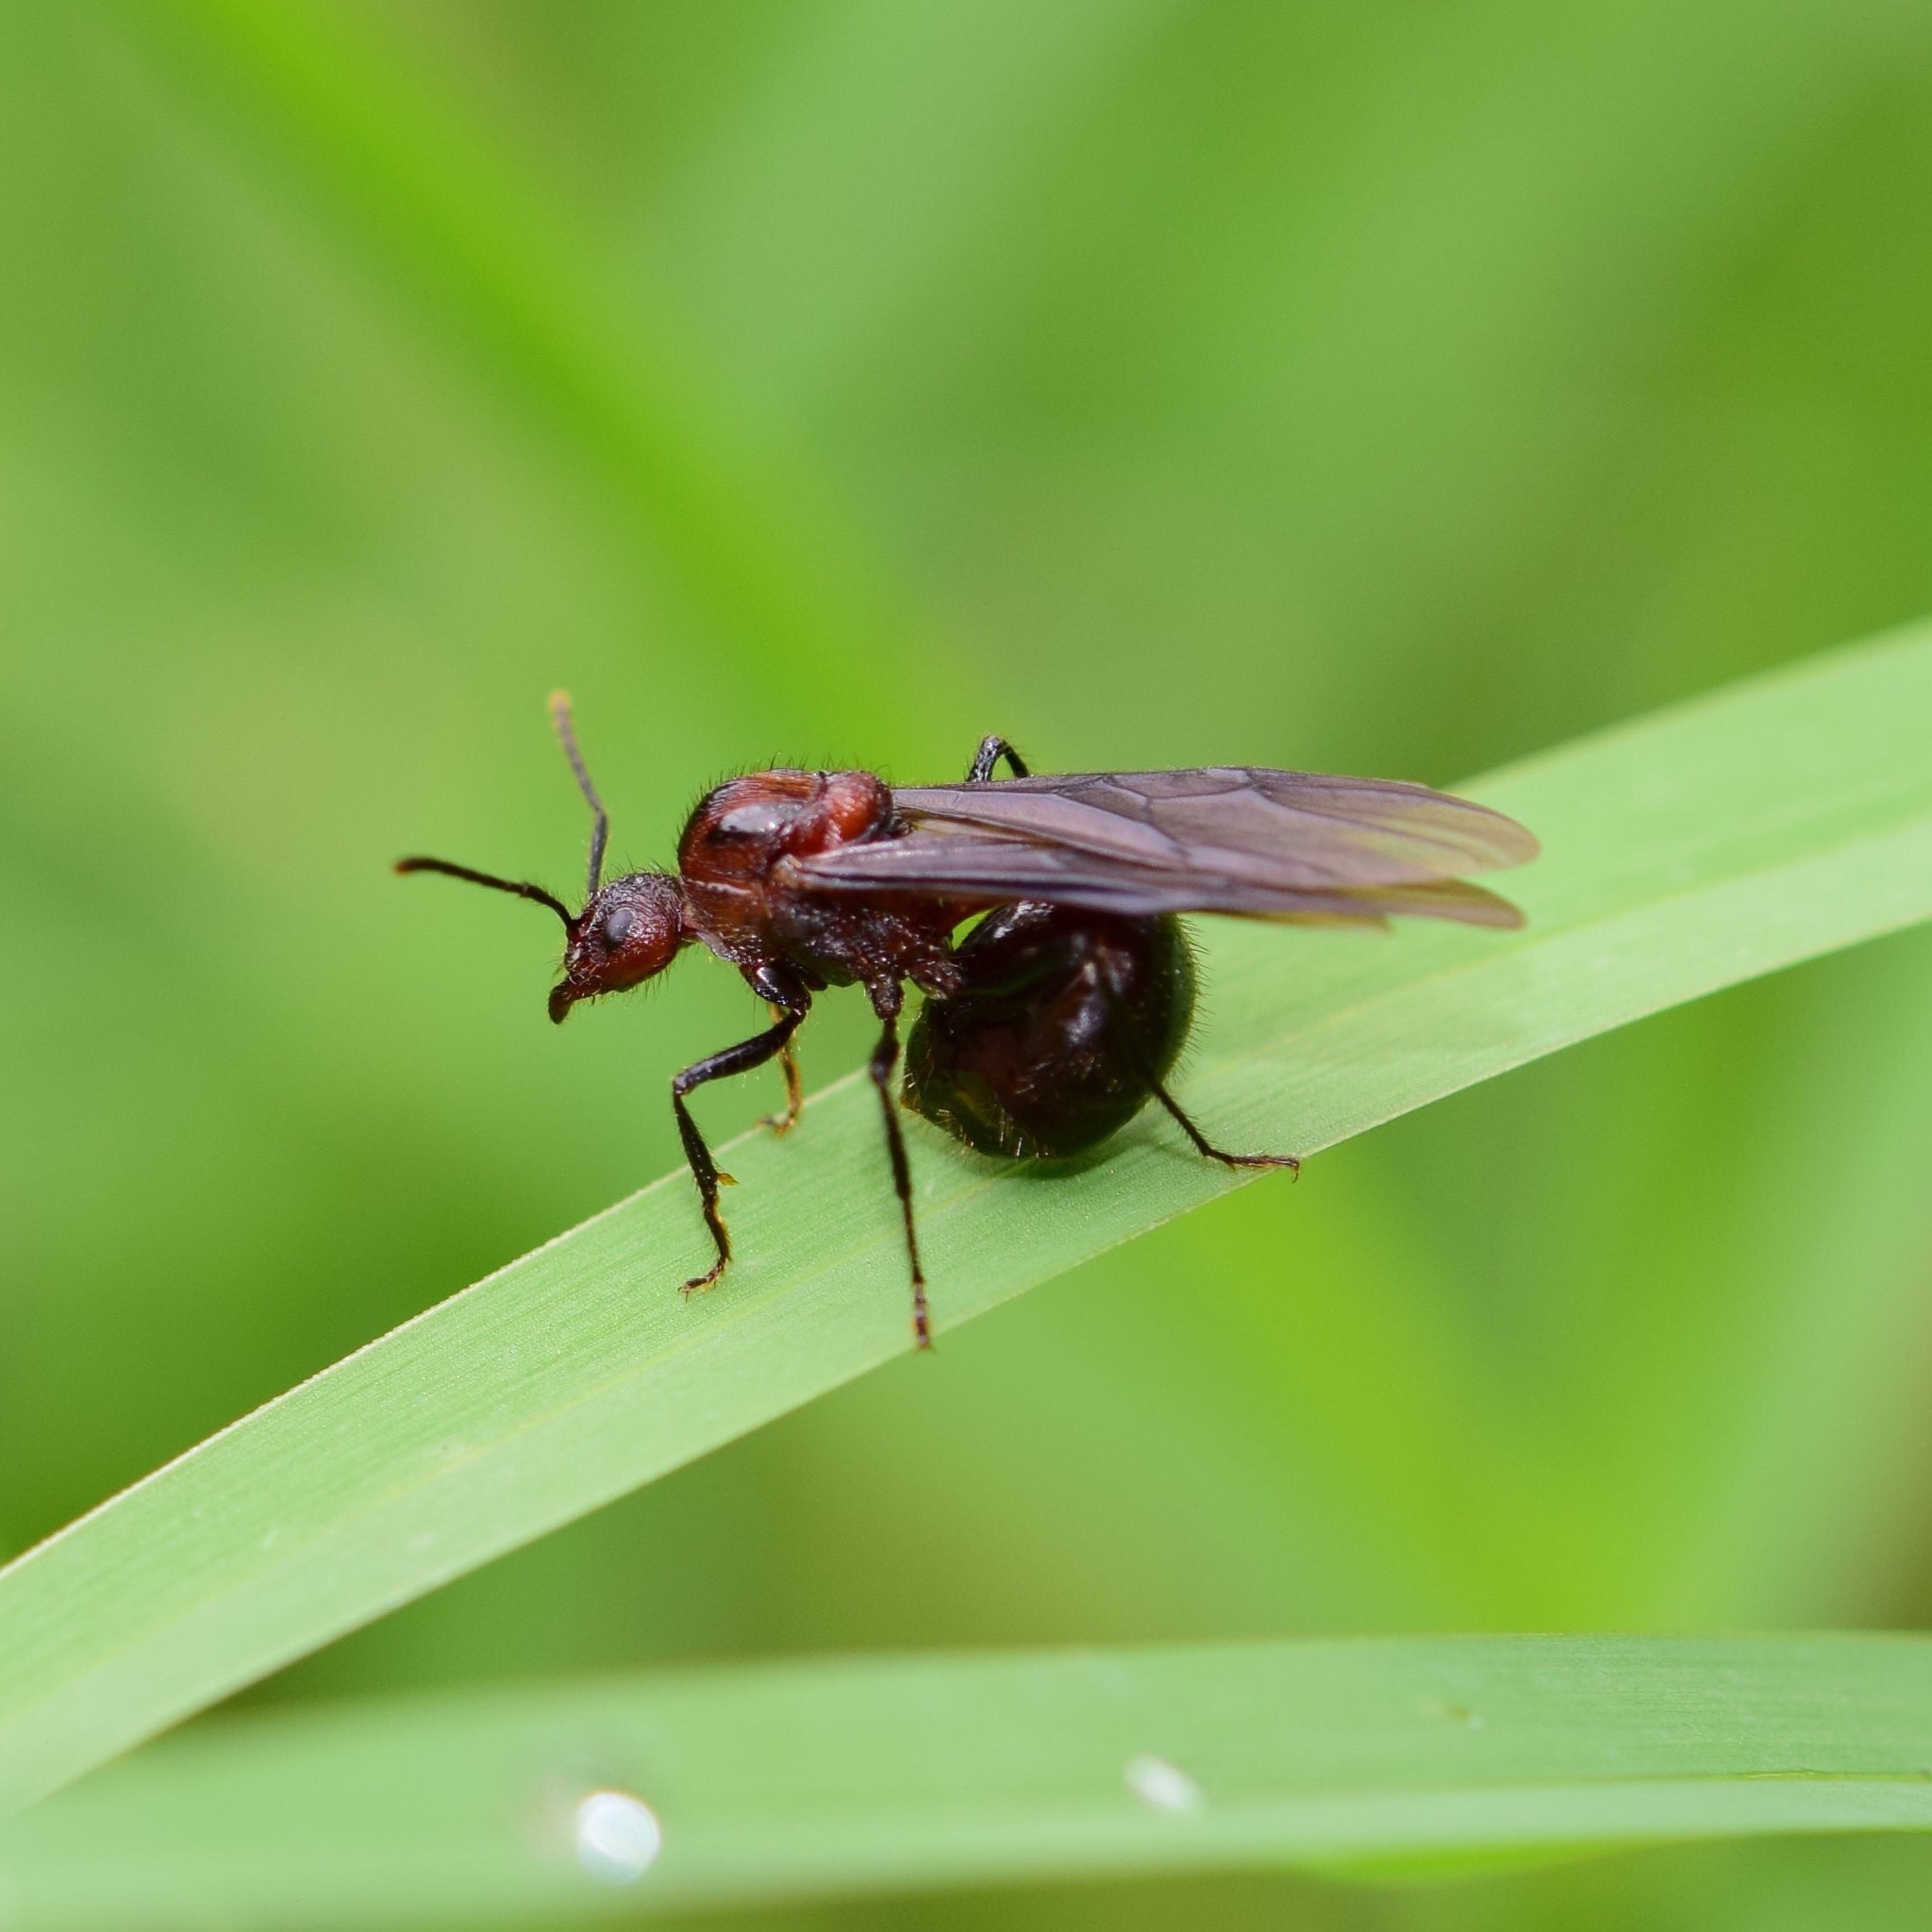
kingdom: Animalia
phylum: Arthropoda
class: Insecta
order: Hymenoptera
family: Formicidae
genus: Myrmicaria
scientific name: Myrmicaria natalensis
